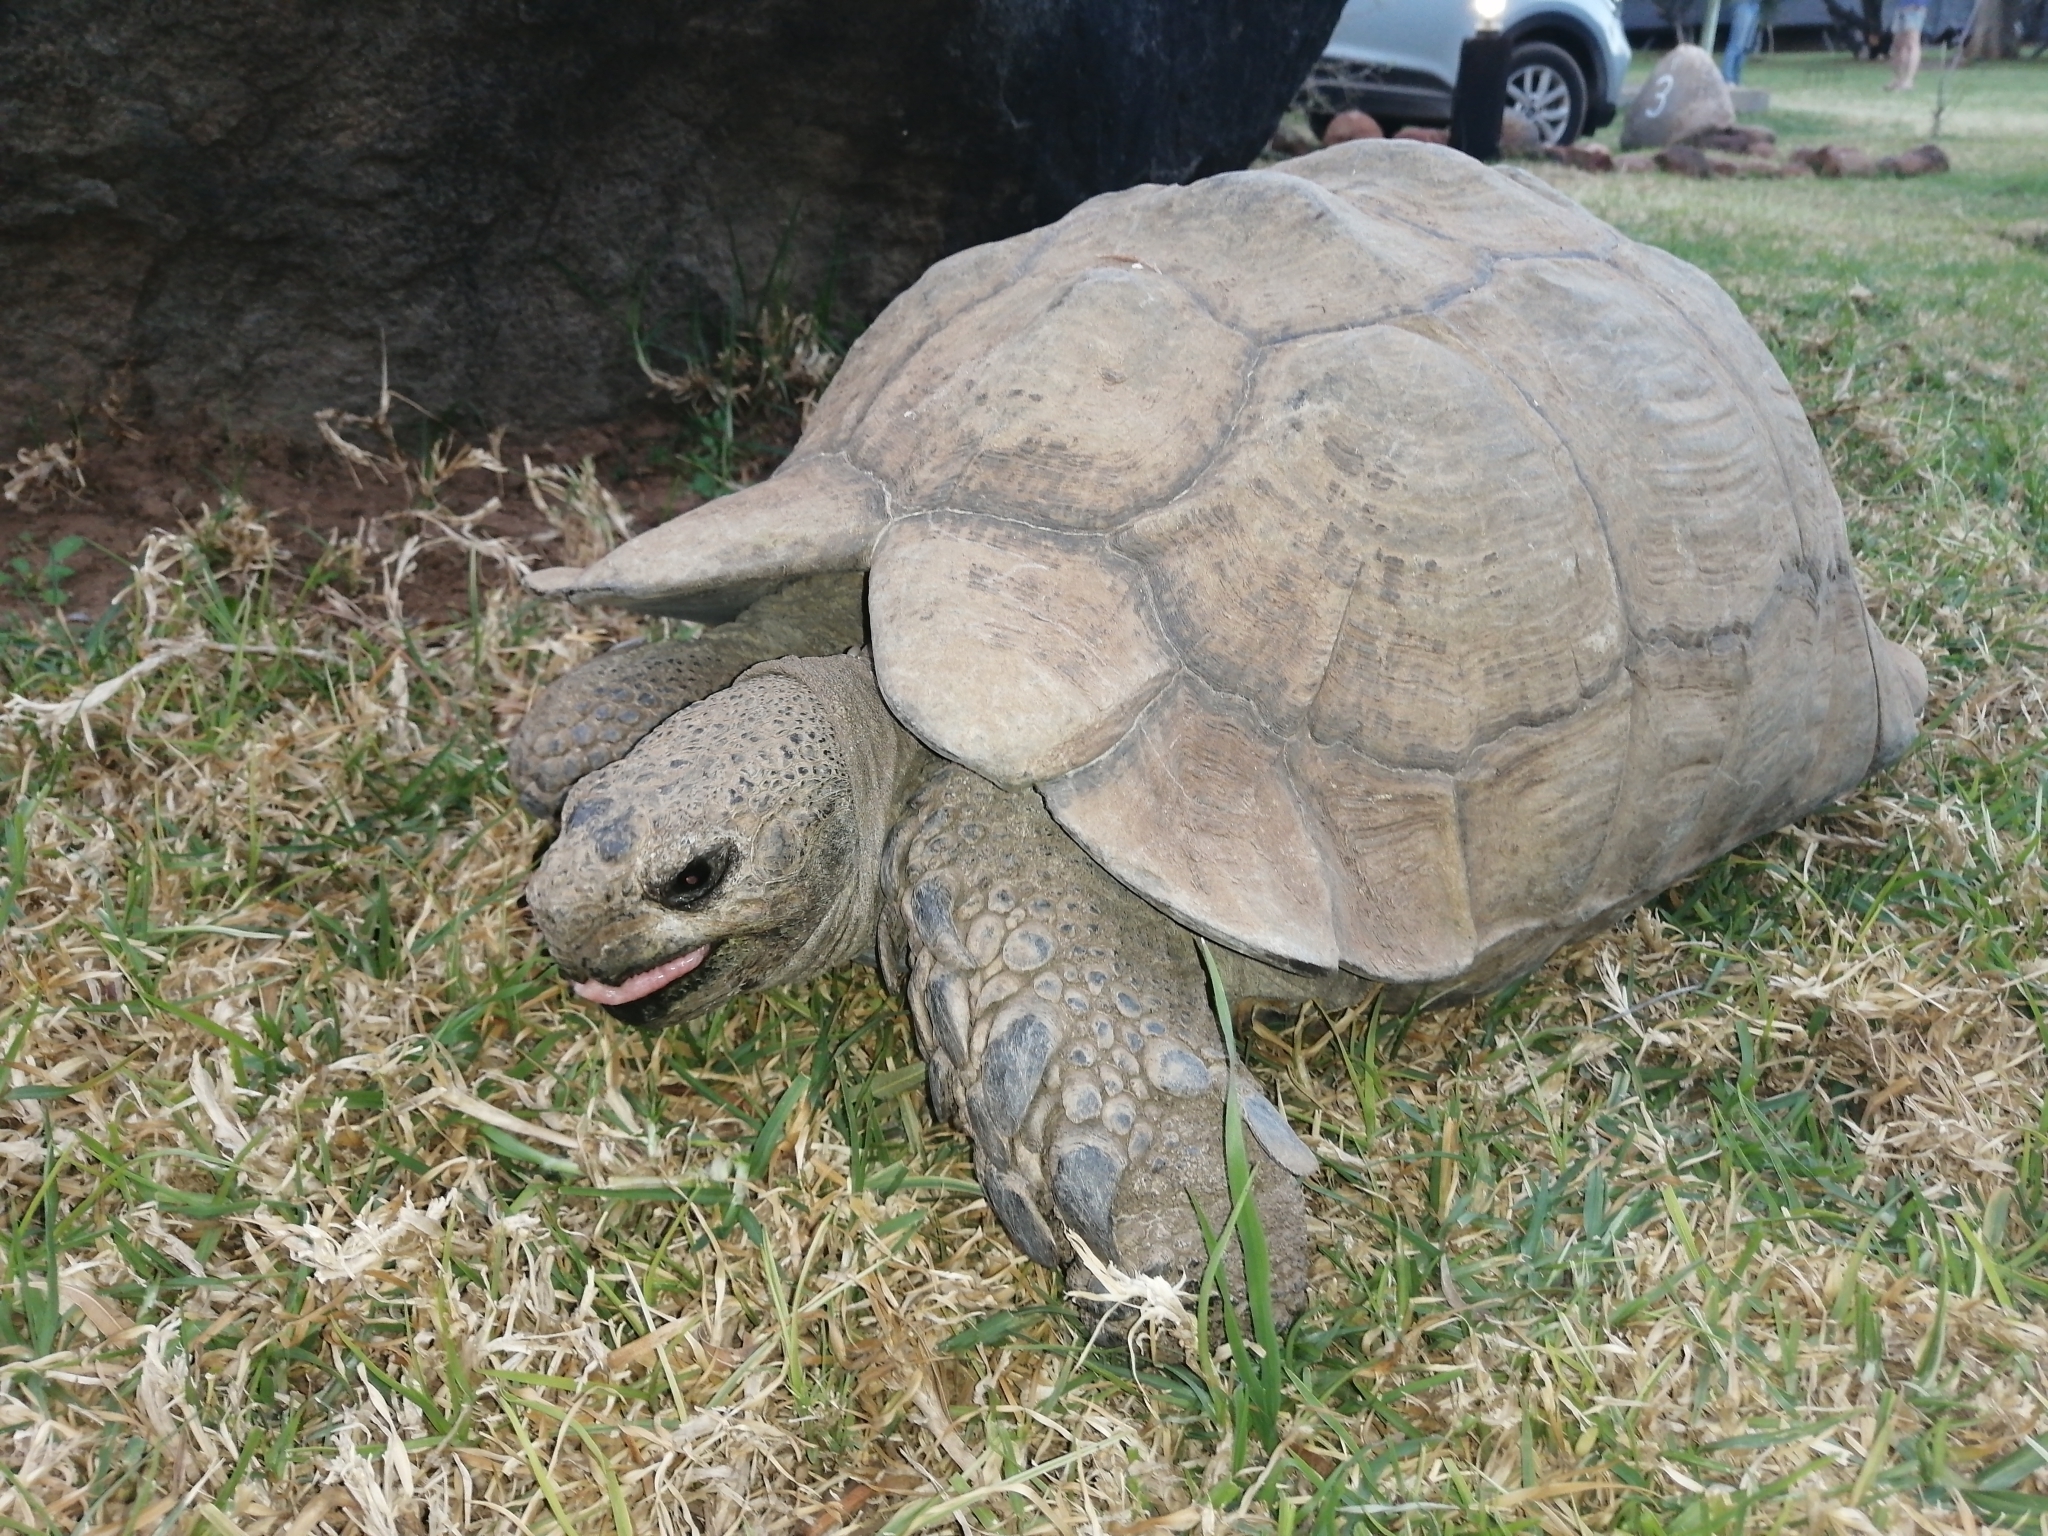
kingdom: Animalia
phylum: Chordata
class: Testudines
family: Testudinidae
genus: Stigmochelys
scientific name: Stigmochelys pardalis
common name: Leopard tortoise
